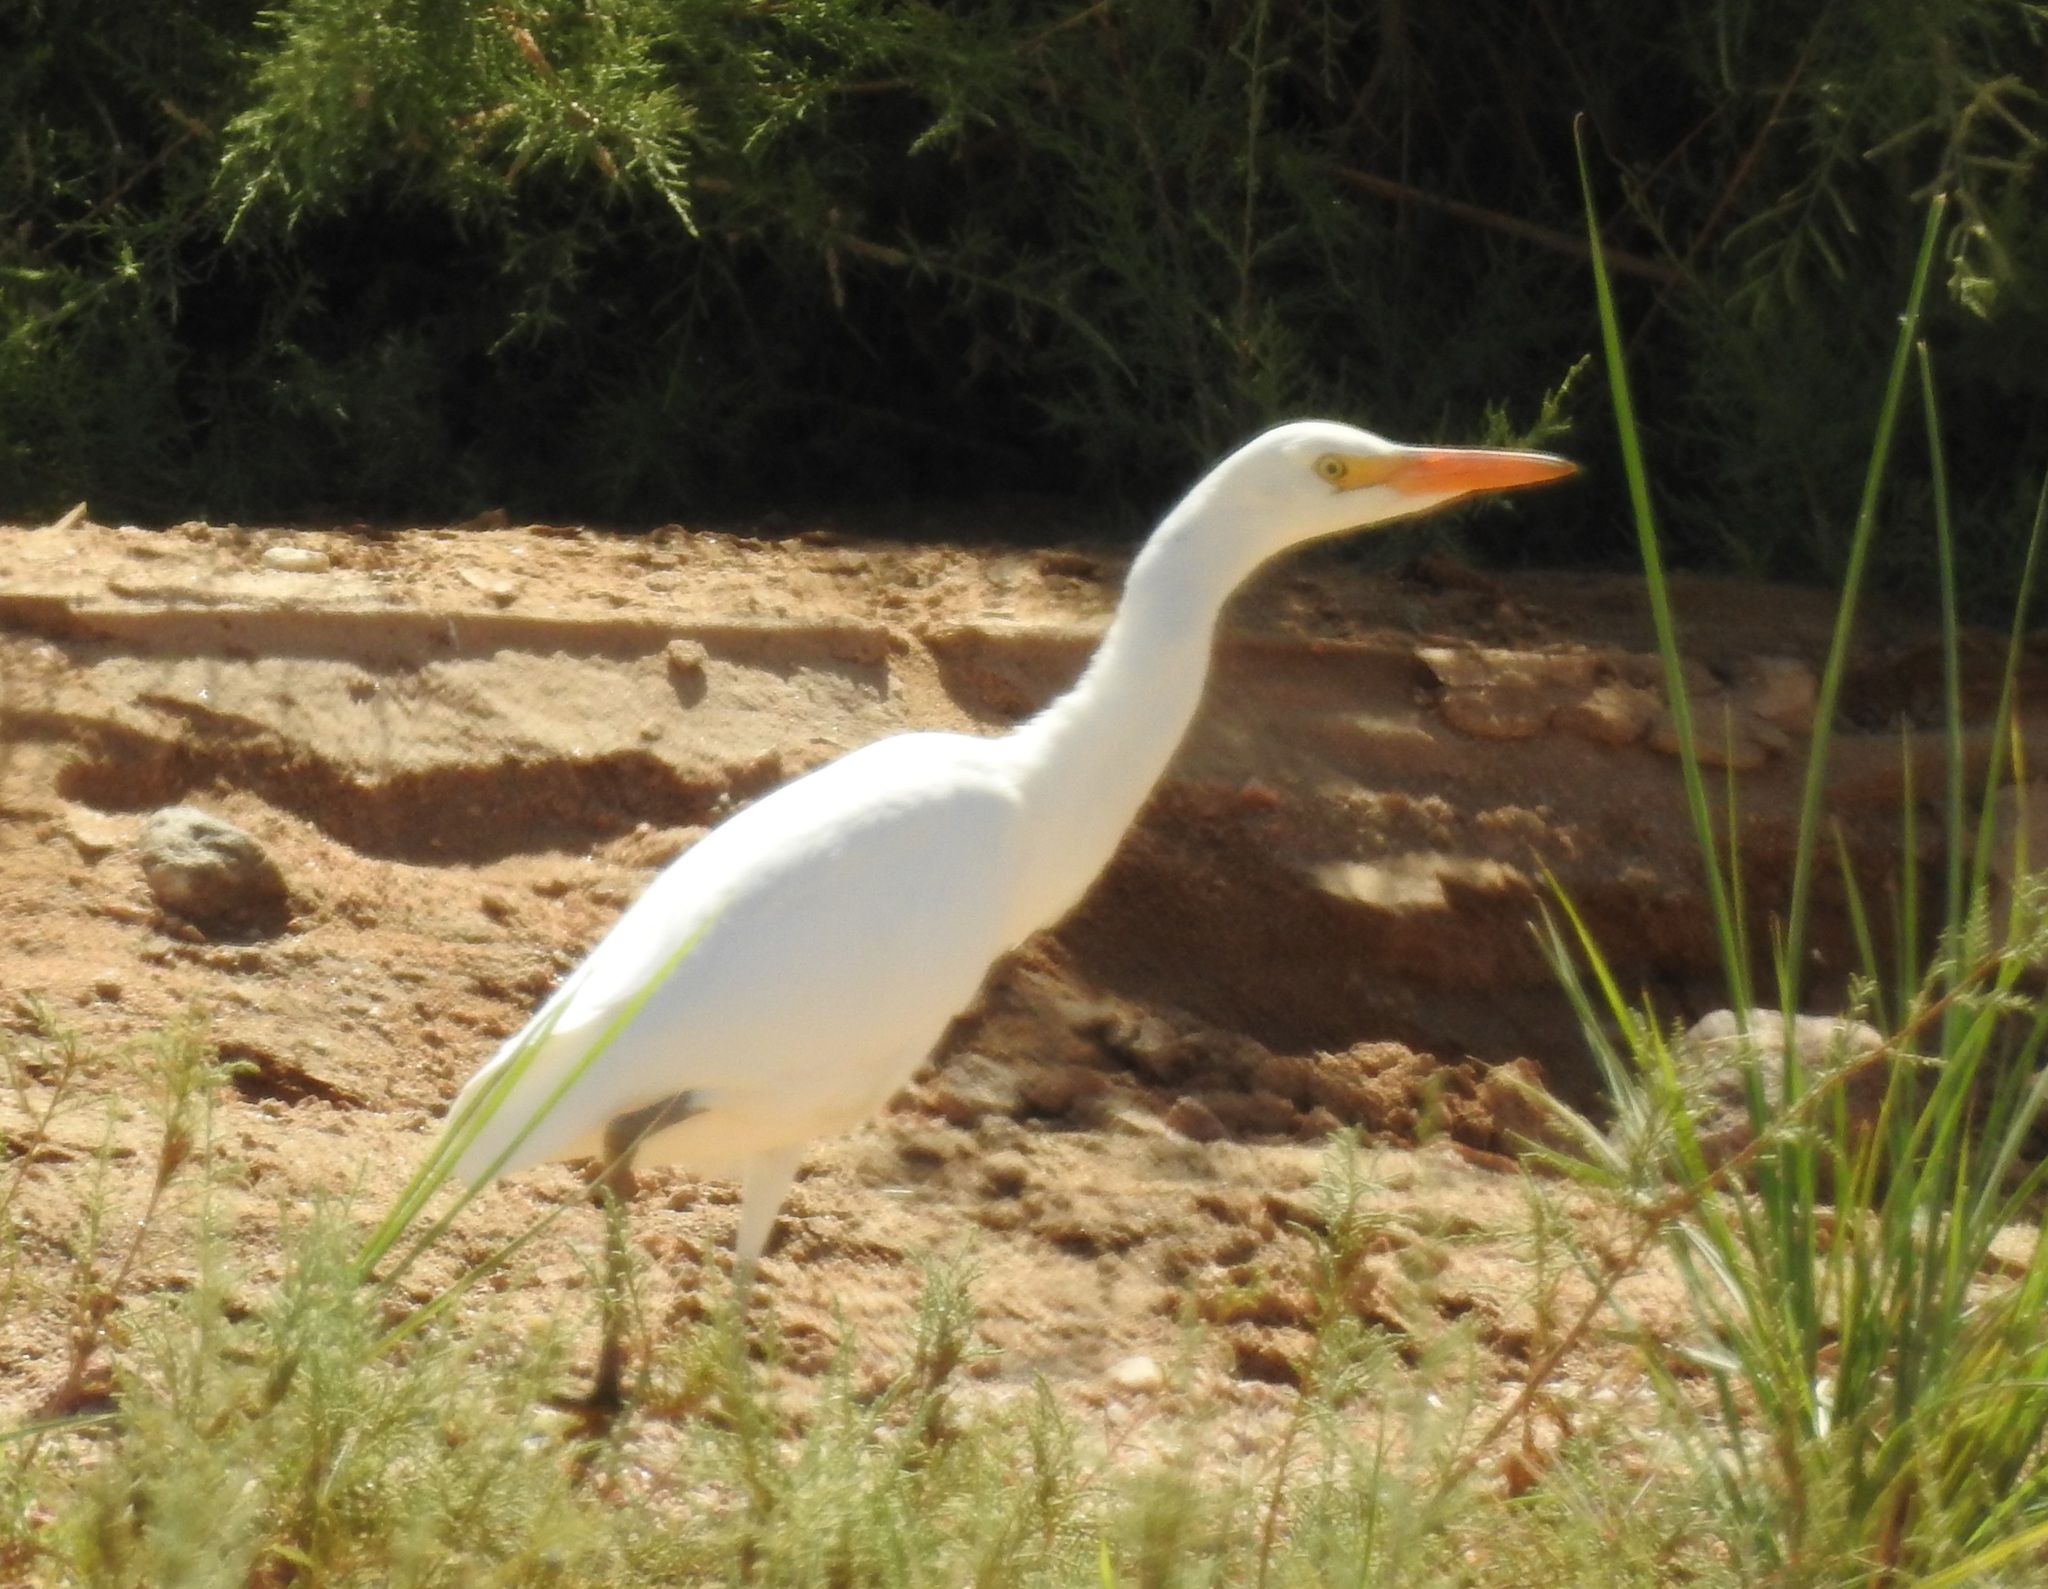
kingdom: Animalia
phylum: Chordata
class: Aves
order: Pelecaniformes
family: Ardeidae
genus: Bubulcus
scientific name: Bubulcus ibis
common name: Cattle egret
